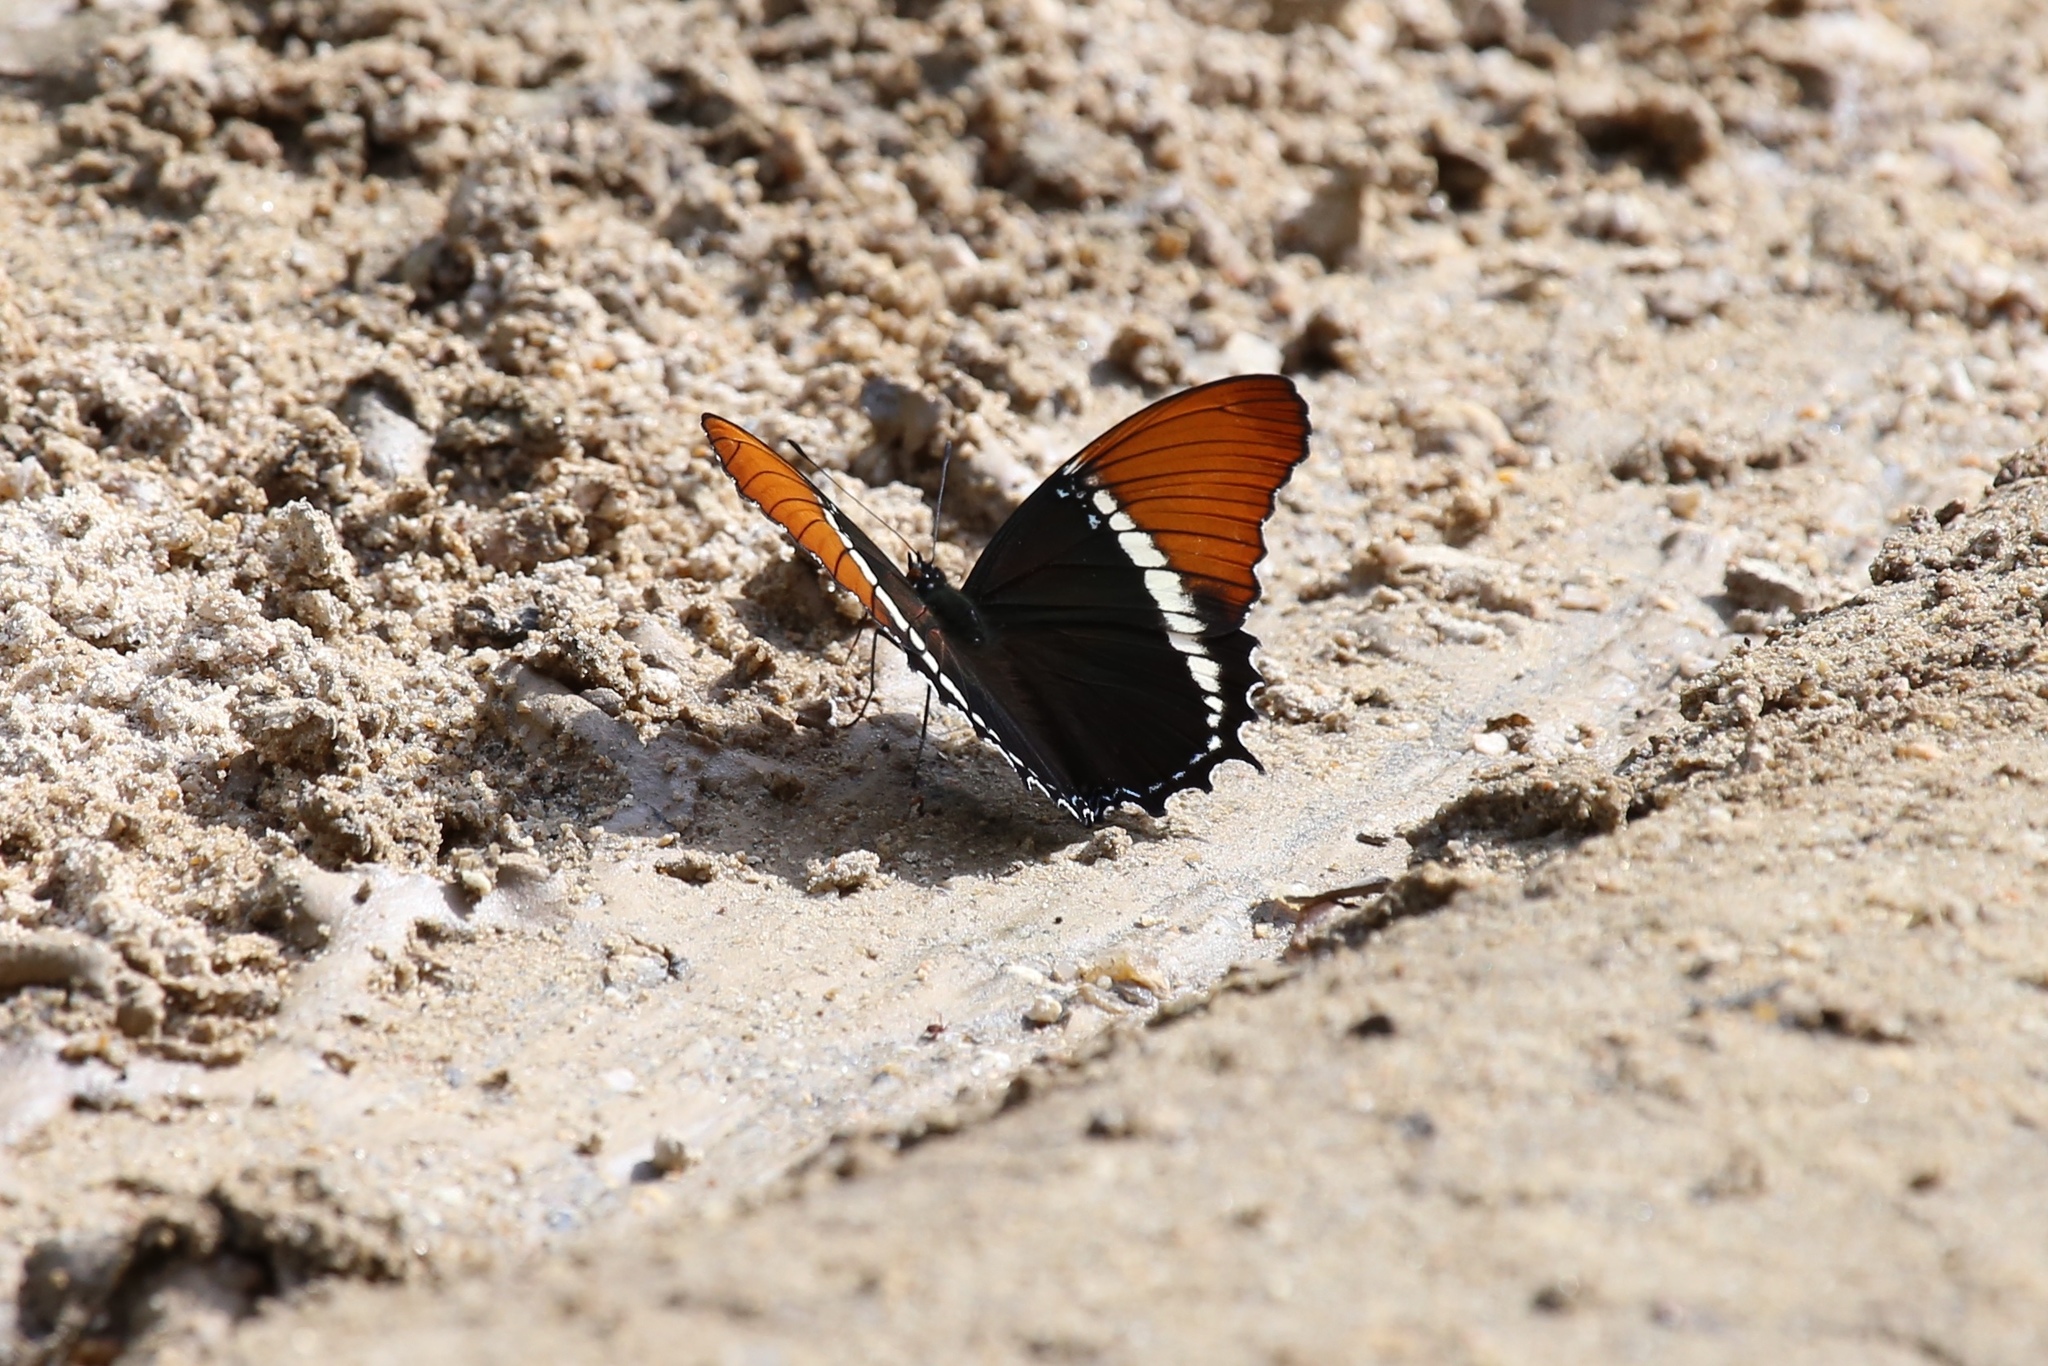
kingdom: Animalia
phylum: Arthropoda
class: Insecta
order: Lepidoptera
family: Nymphalidae
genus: Siproeta
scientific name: Siproeta epaphus
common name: Rusty-tipped page
